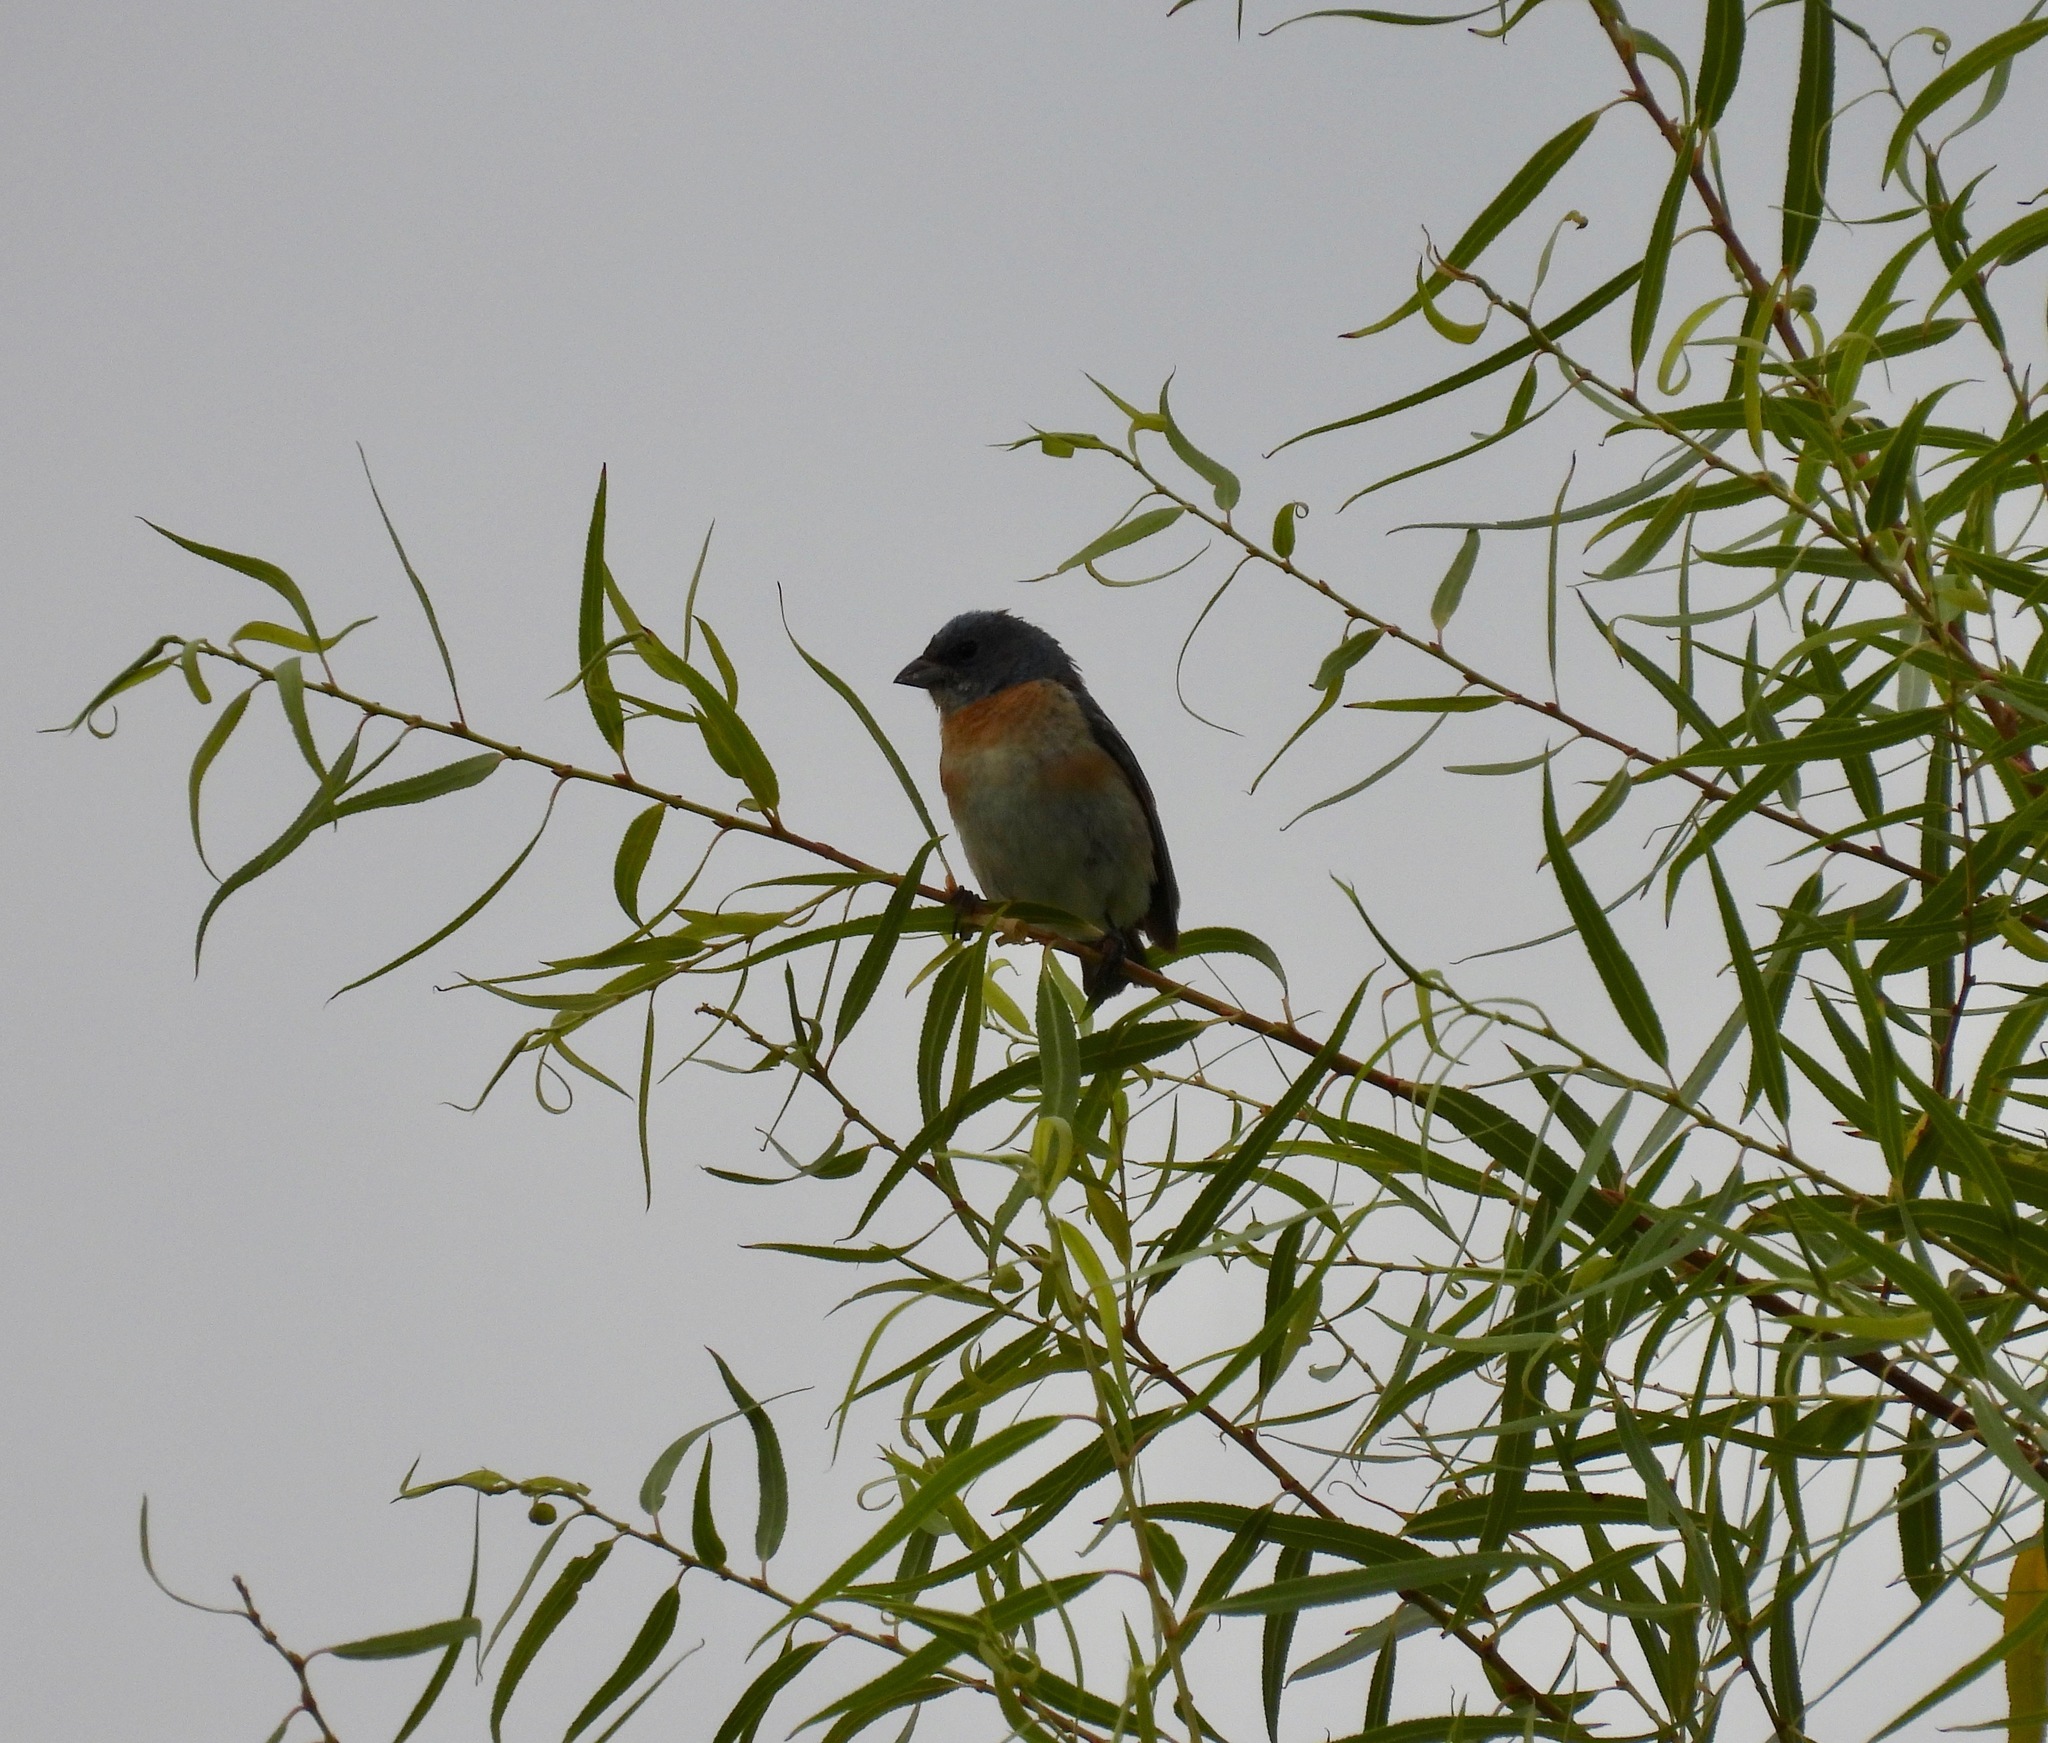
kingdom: Animalia
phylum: Chordata
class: Aves
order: Passeriformes
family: Cardinalidae
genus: Passerina
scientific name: Passerina amoena
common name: Lazuli bunting
